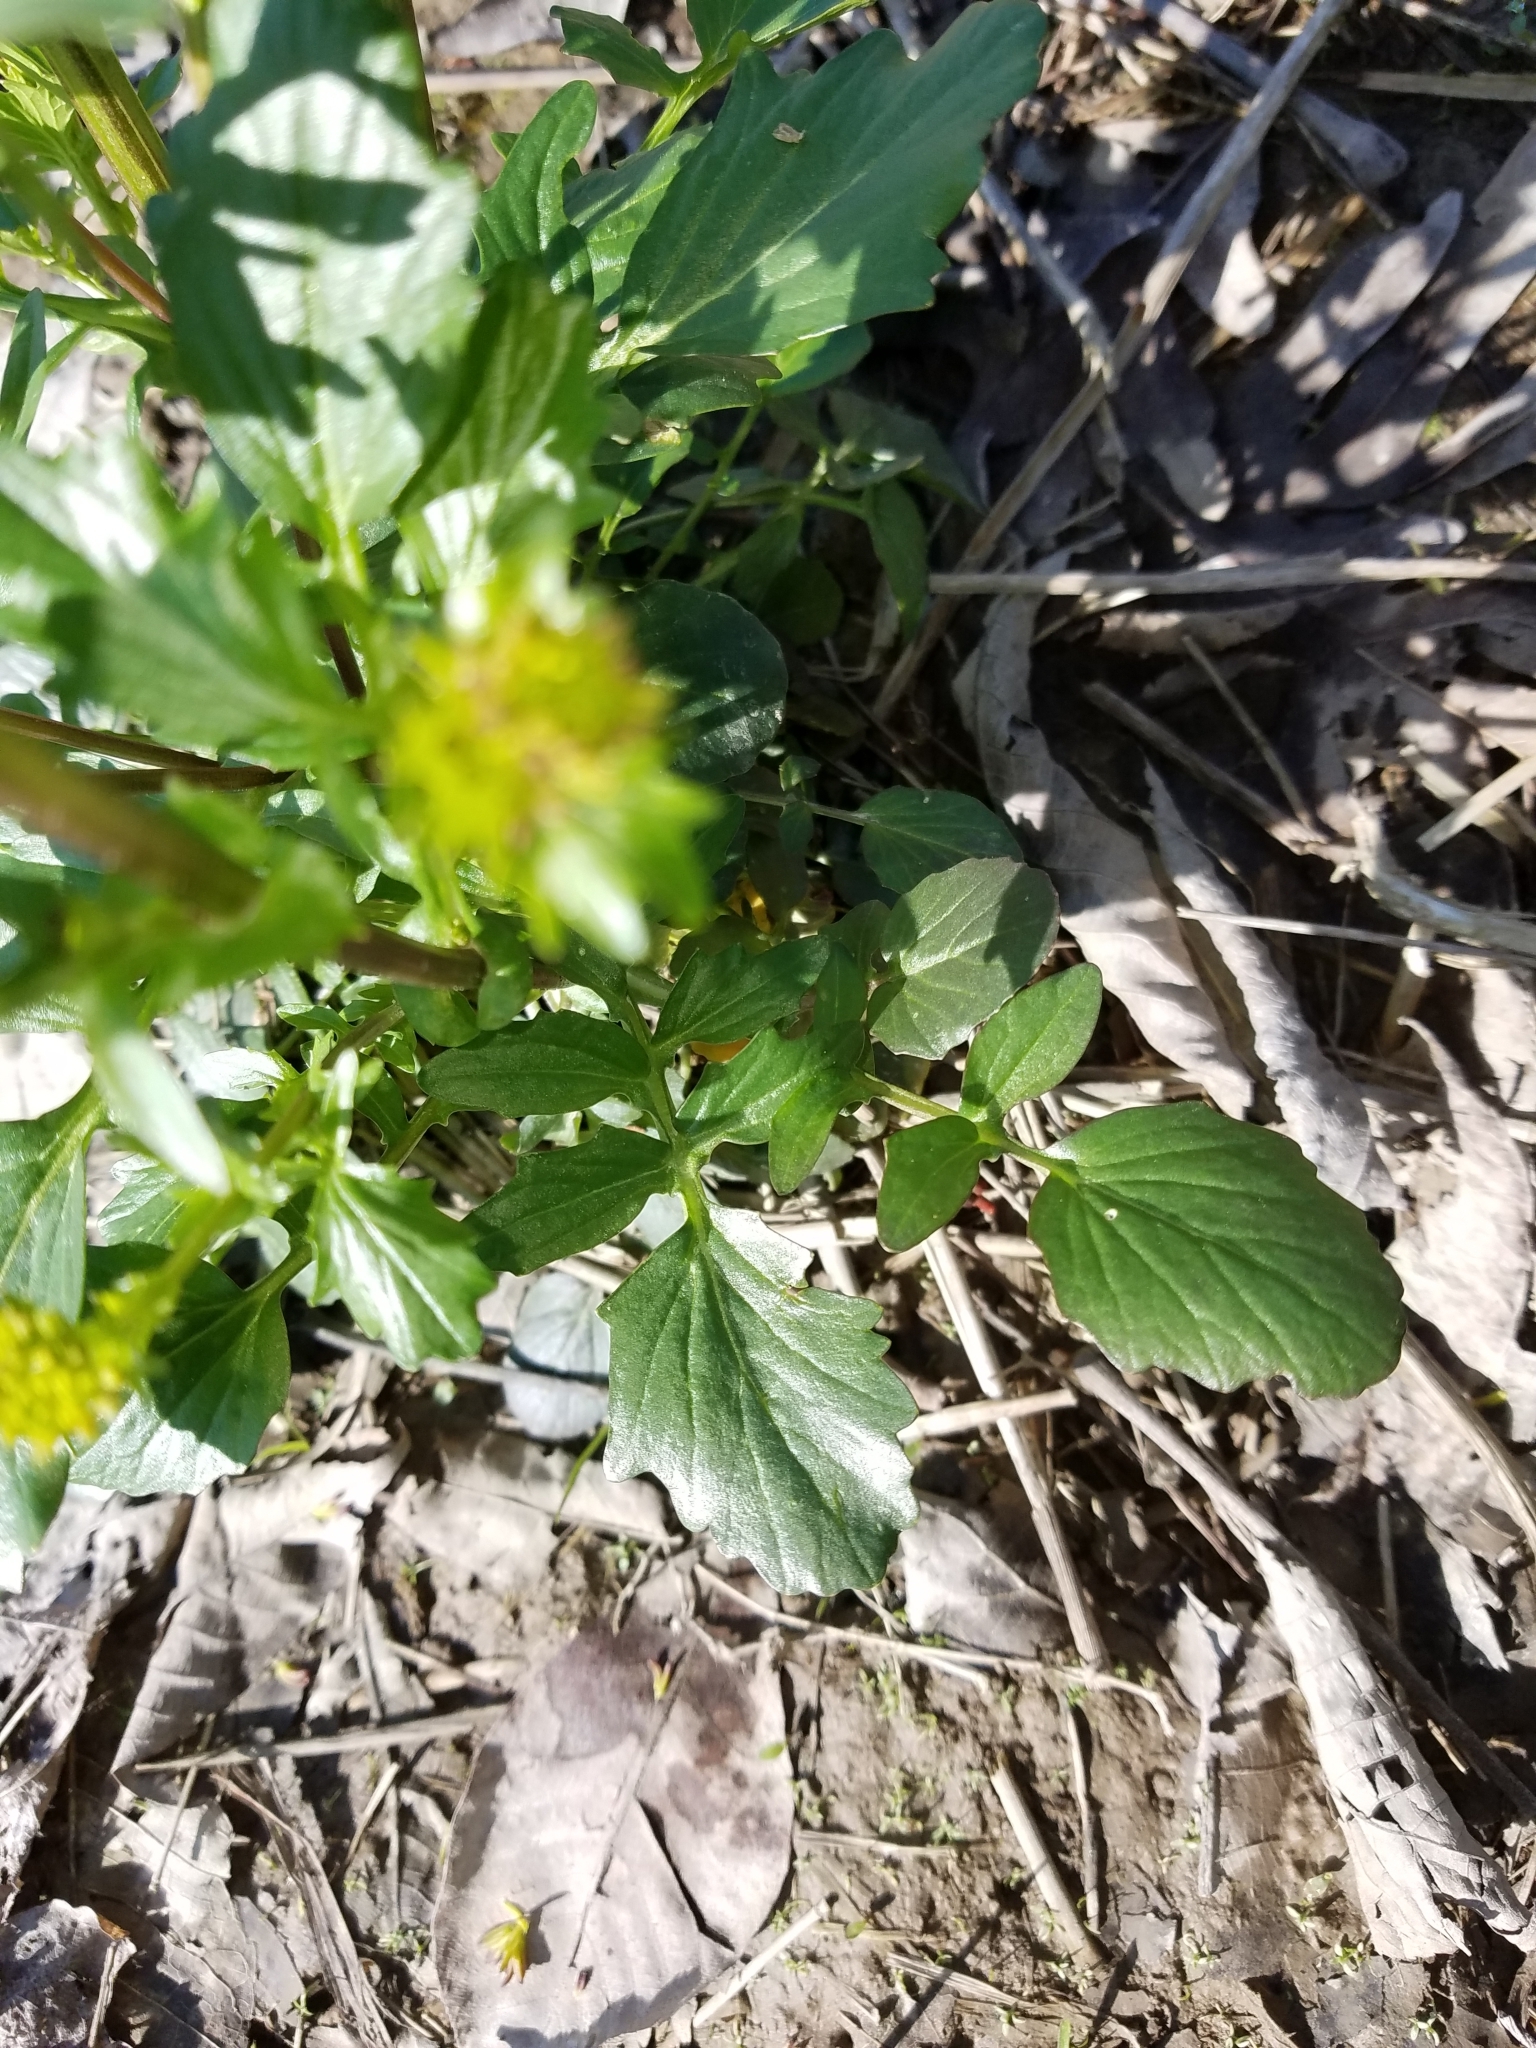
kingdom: Plantae
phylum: Tracheophyta
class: Magnoliopsida
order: Brassicales
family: Brassicaceae
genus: Barbarea
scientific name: Barbarea vulgaris
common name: Cressy-greens
